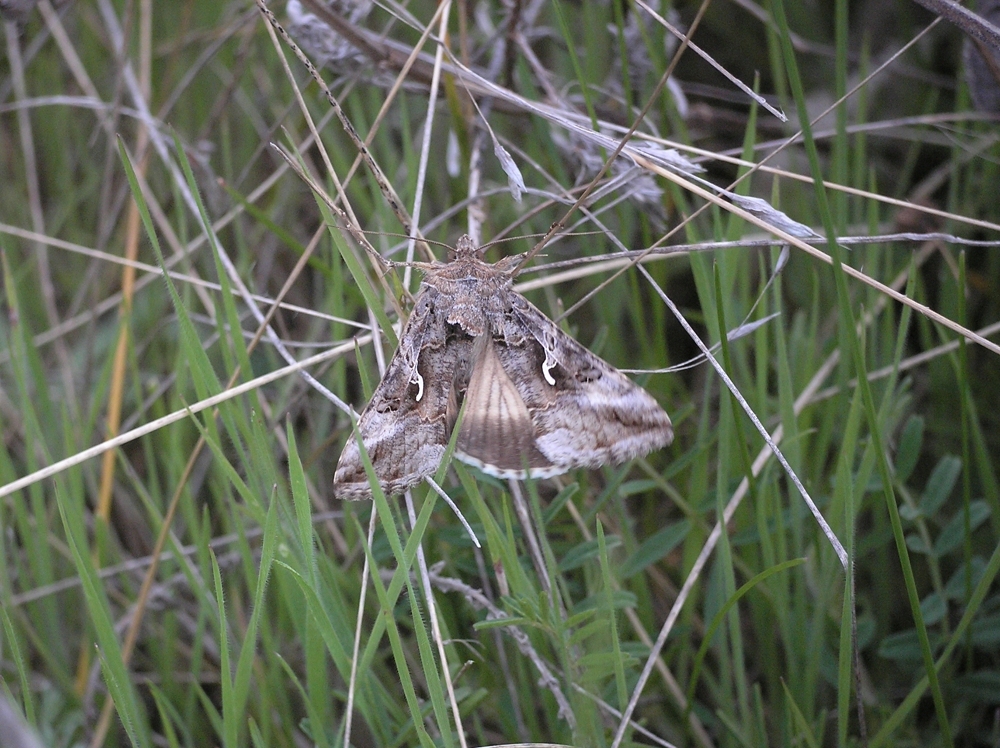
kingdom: Animalia
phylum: Arthropoda
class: Insecta
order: Lepidoptera
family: Noctuidae
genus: Autographa
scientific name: Autographa gamma
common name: Silver y
